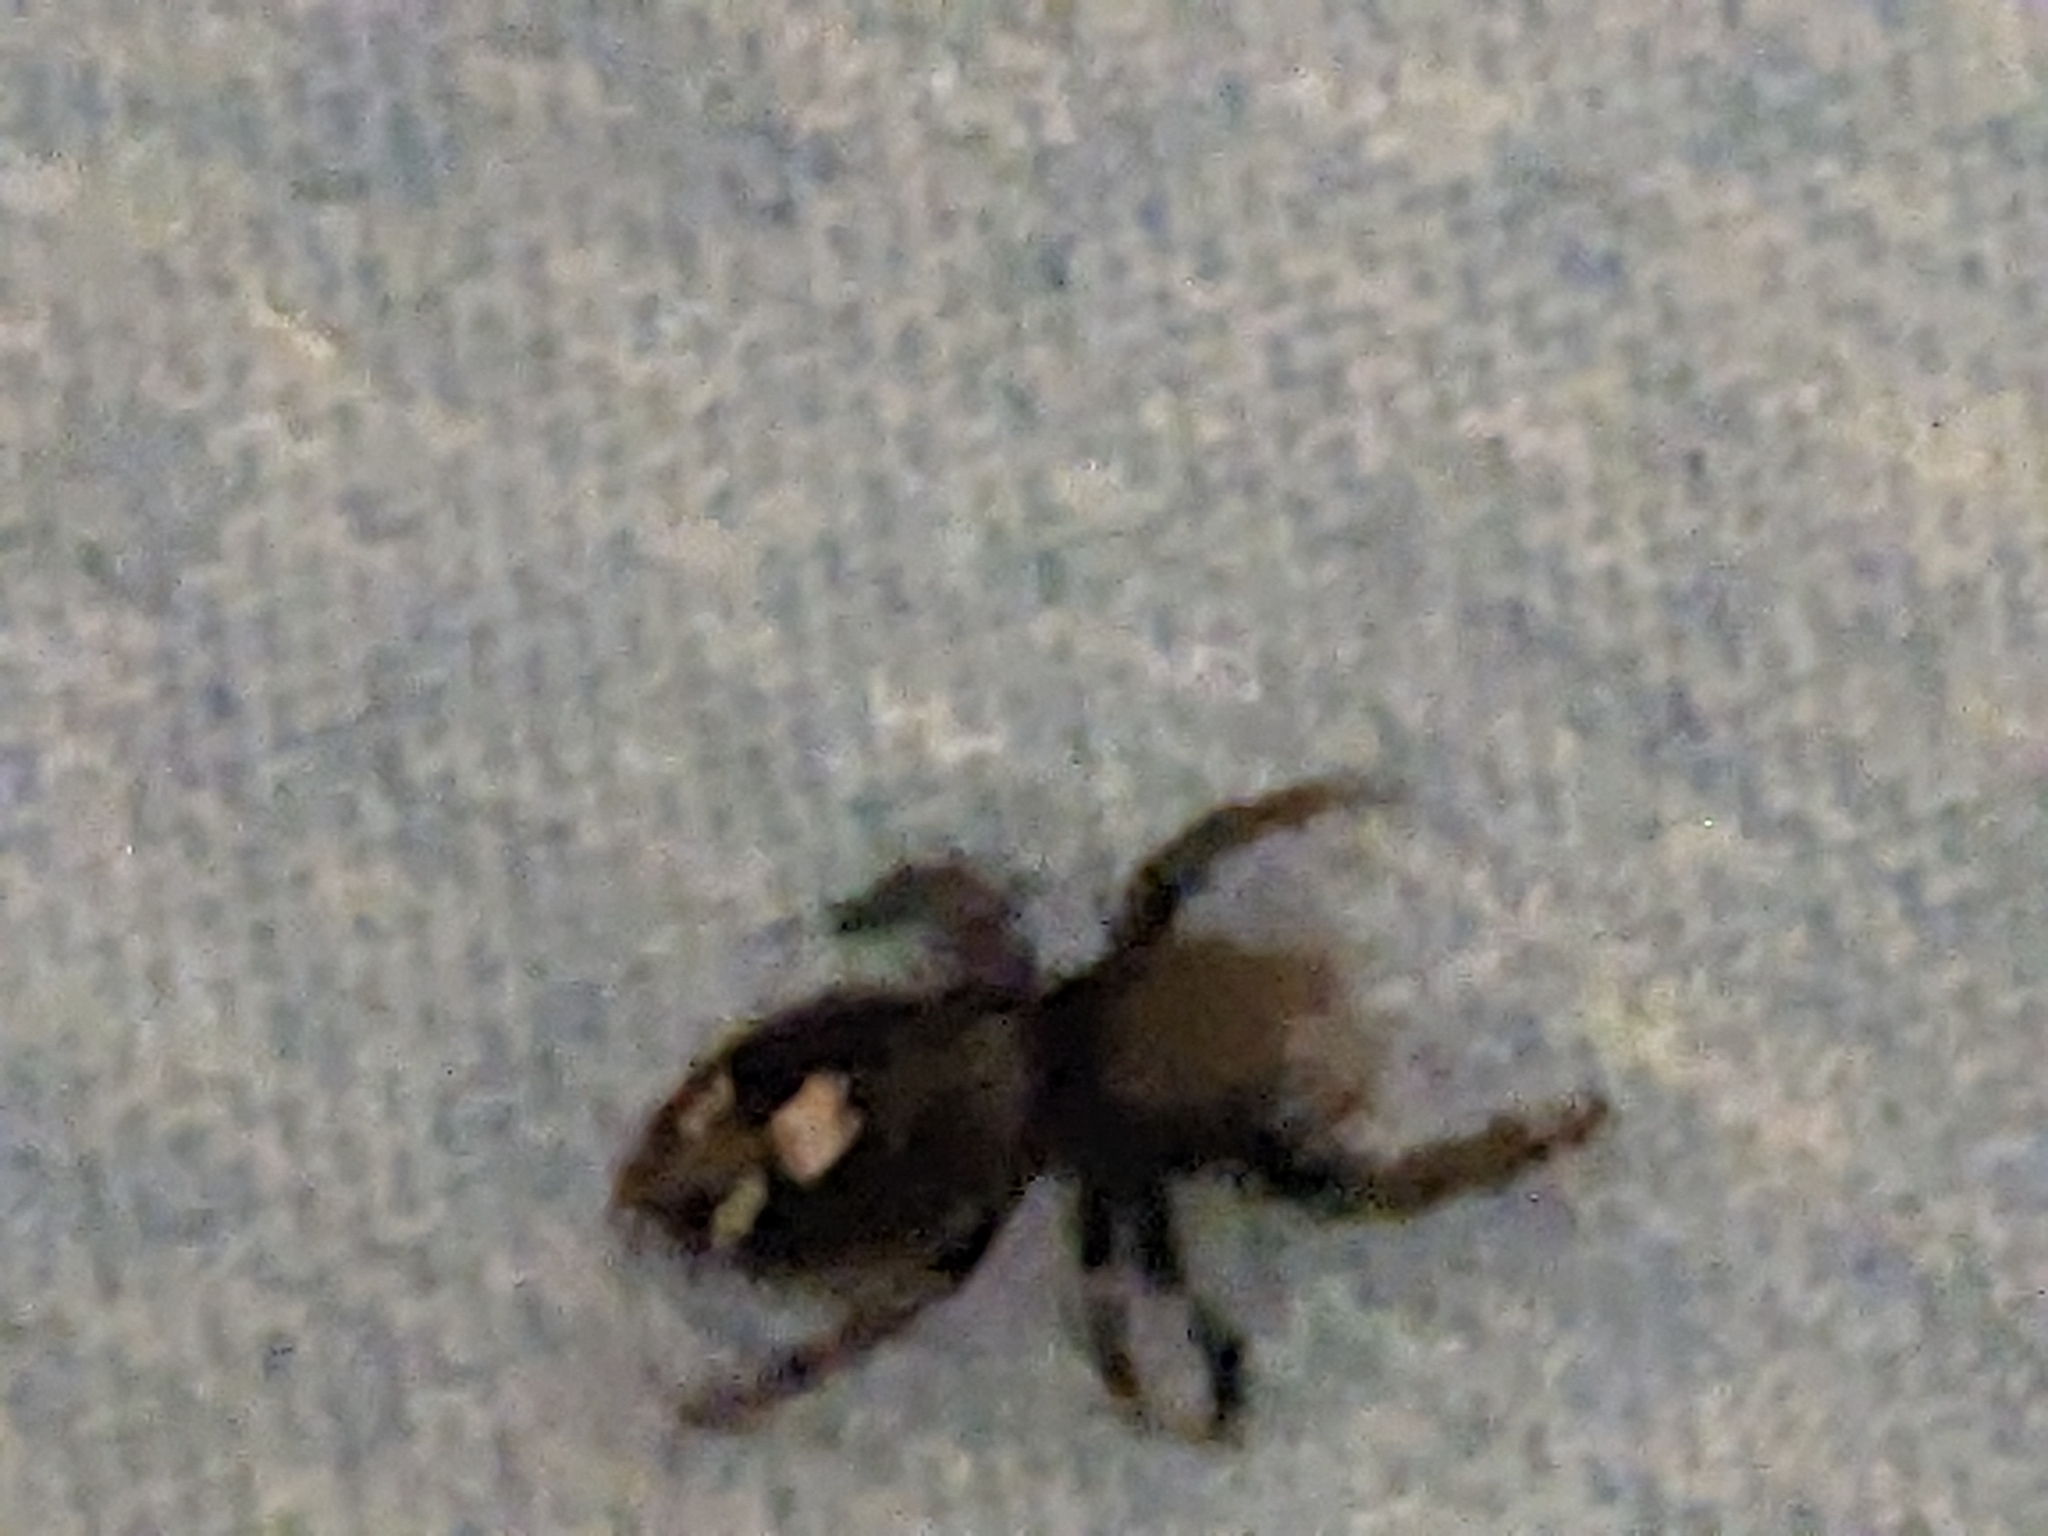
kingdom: Animalia
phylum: Arthropoda
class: Arachnida
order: Araneae
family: Salticidae
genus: Phidippus
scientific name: Phidippus audax
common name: Bold jumper
